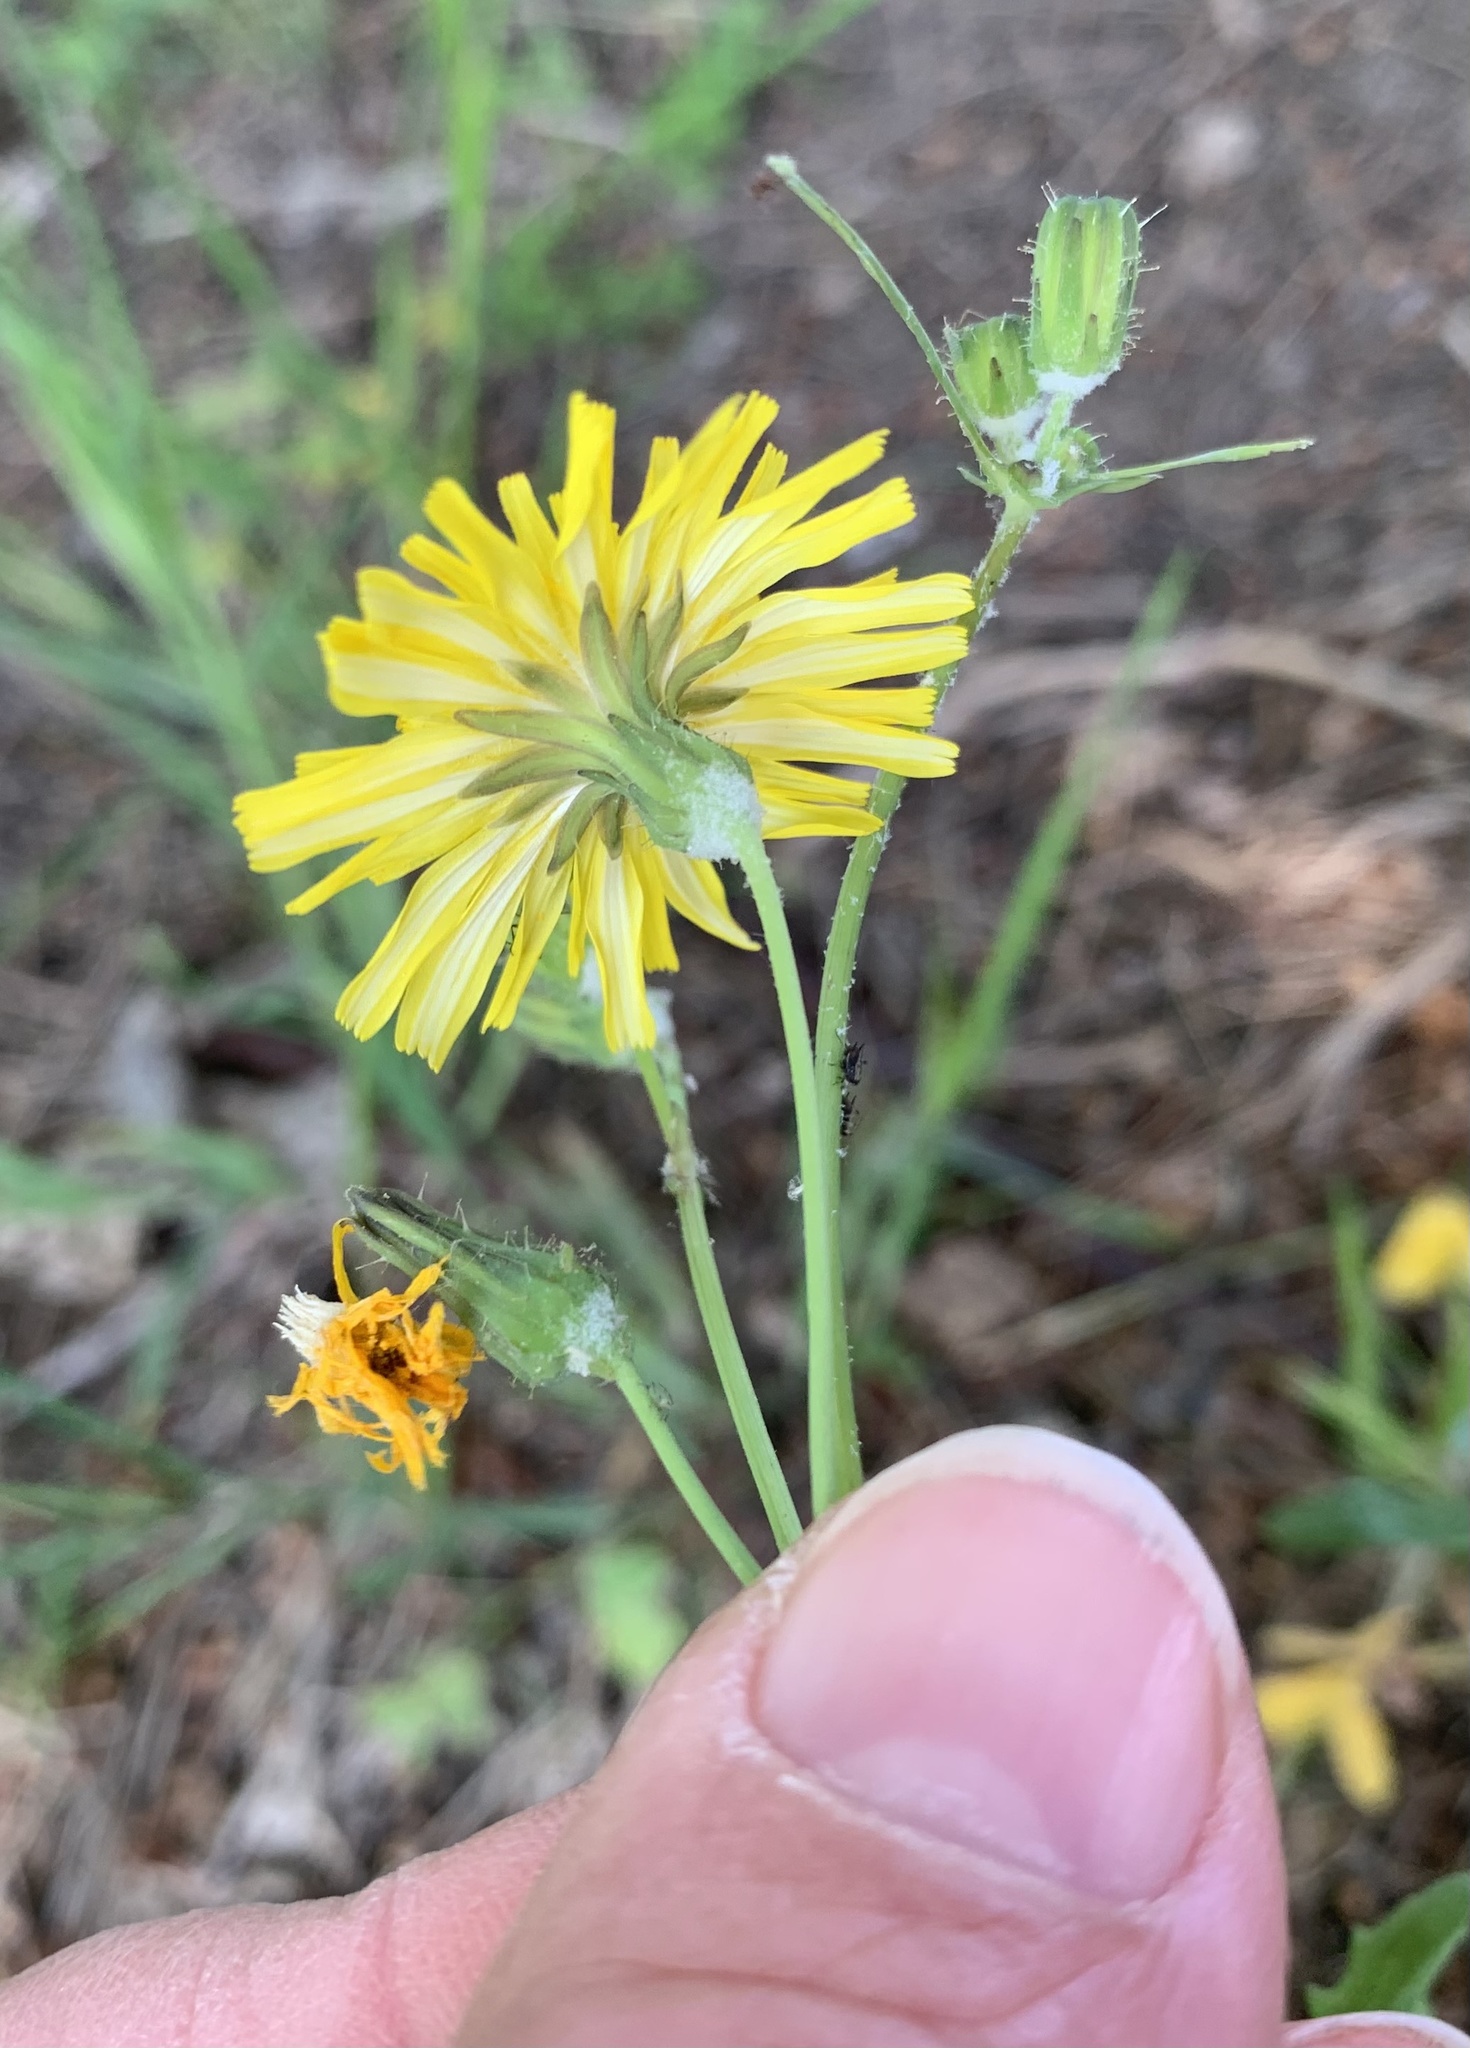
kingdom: Plantae
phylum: Tracheophyta
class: Magnoliopsida
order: Asterales
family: Asteraceae
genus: Sonchus
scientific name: Sonchus tenerrimus
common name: Clammy sowthistle
